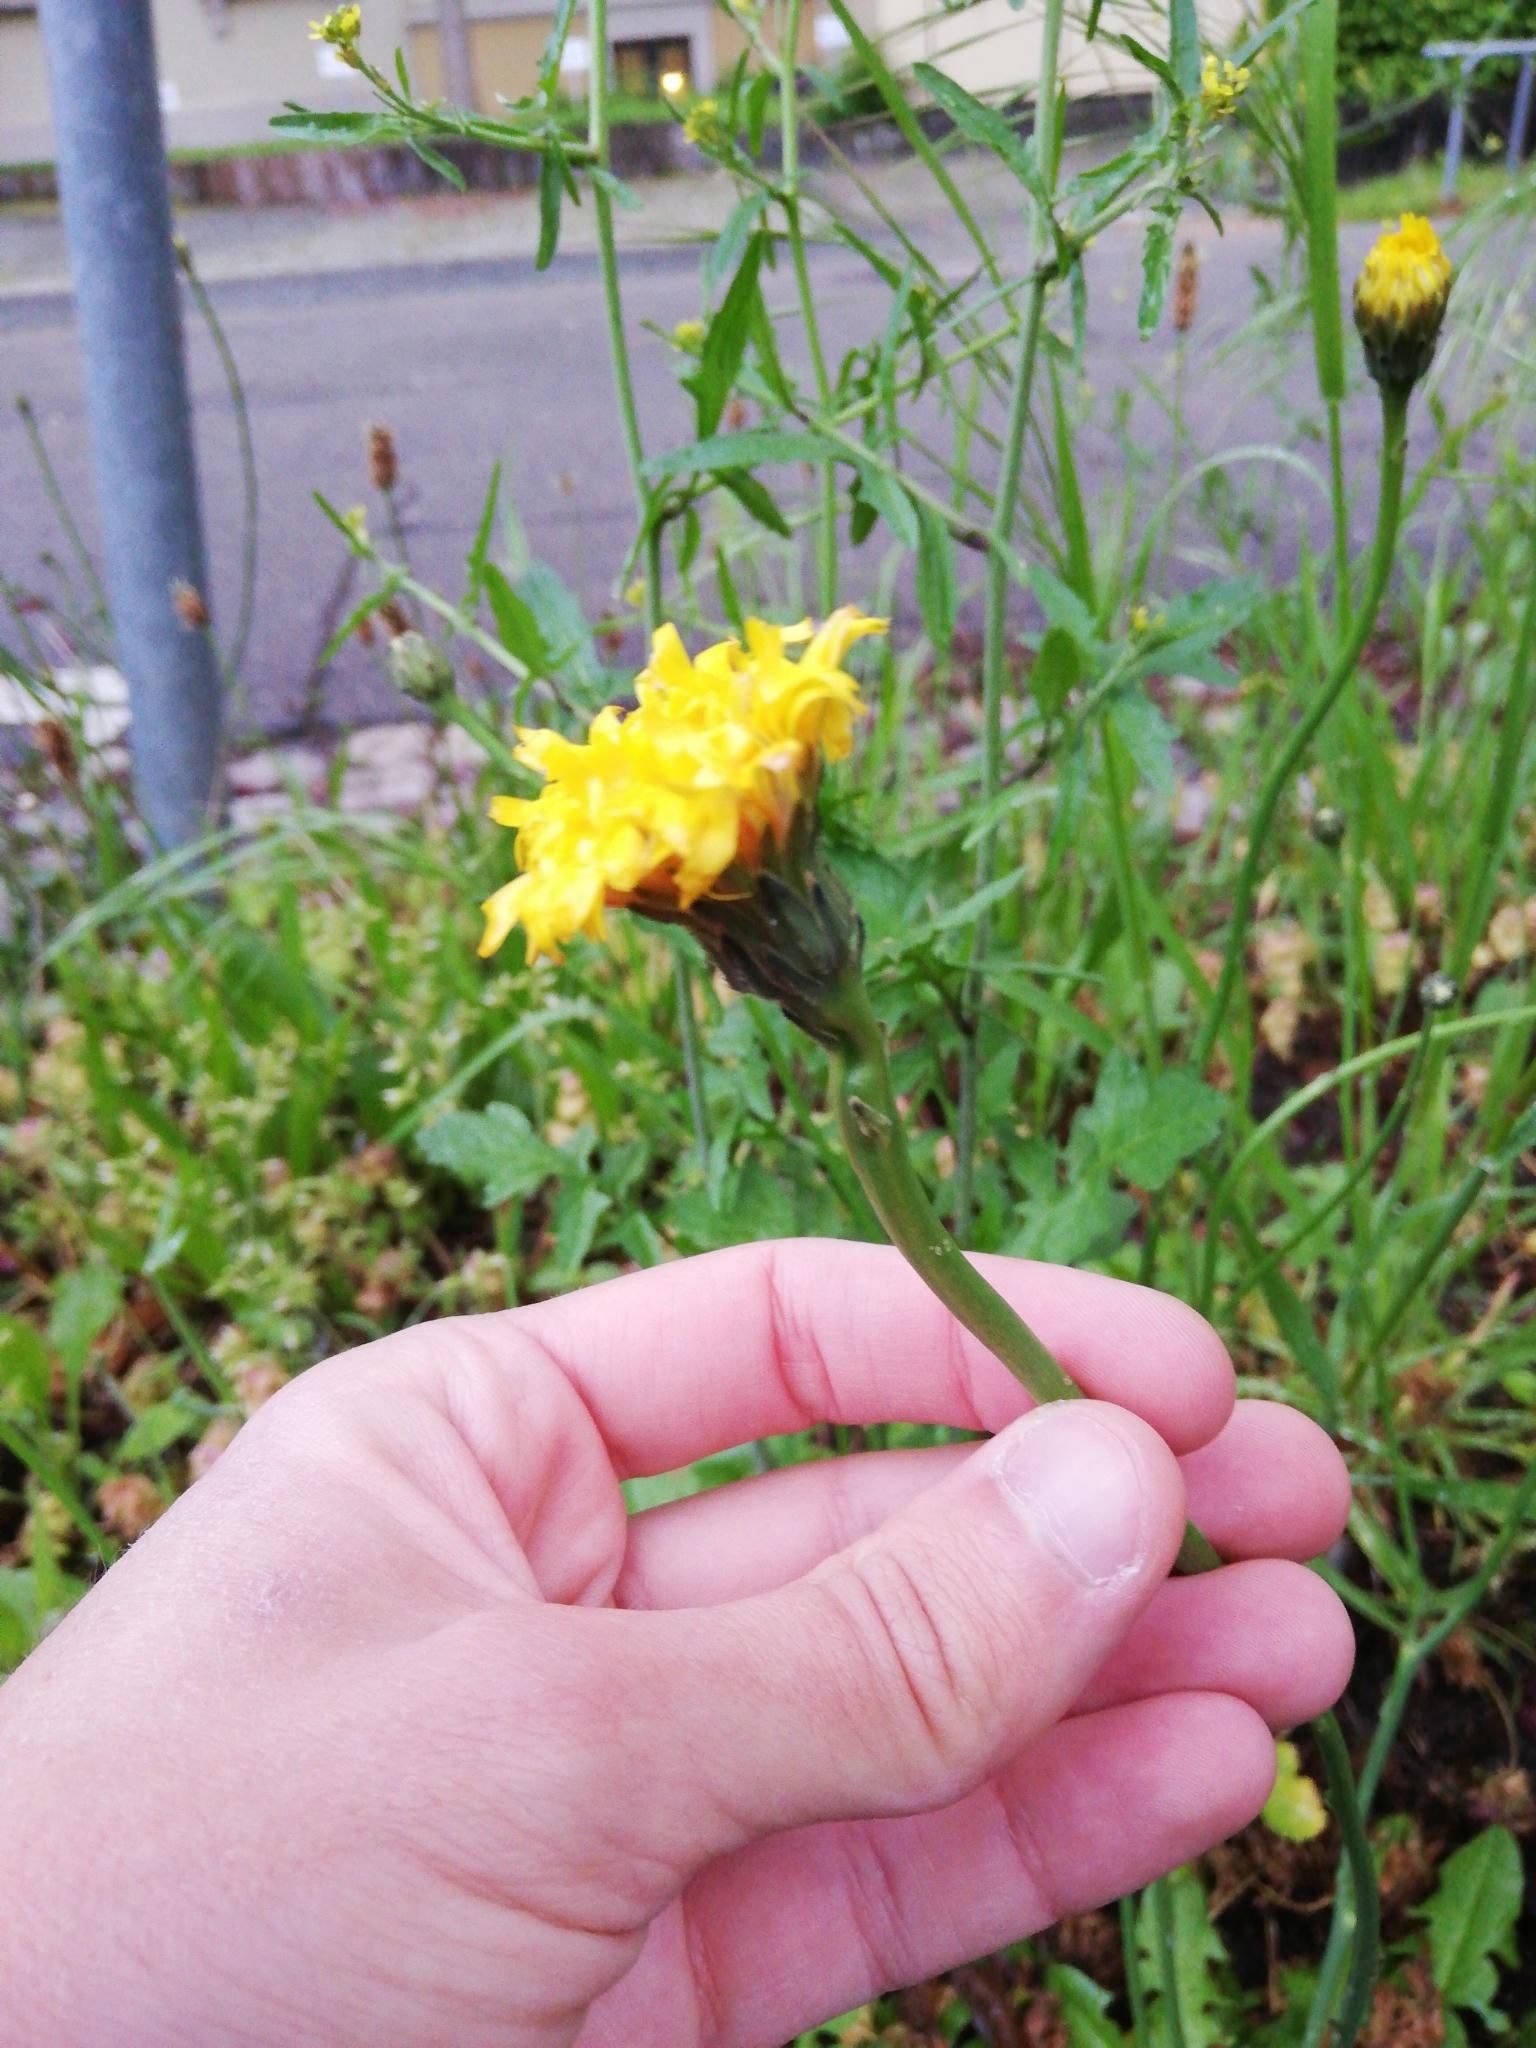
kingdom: Plantae
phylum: Tracheophyta
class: Magnoliopsida
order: Asterales
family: Asteraceae
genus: Hypochaeris
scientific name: Hypochaeris radicata
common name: Flatweed
